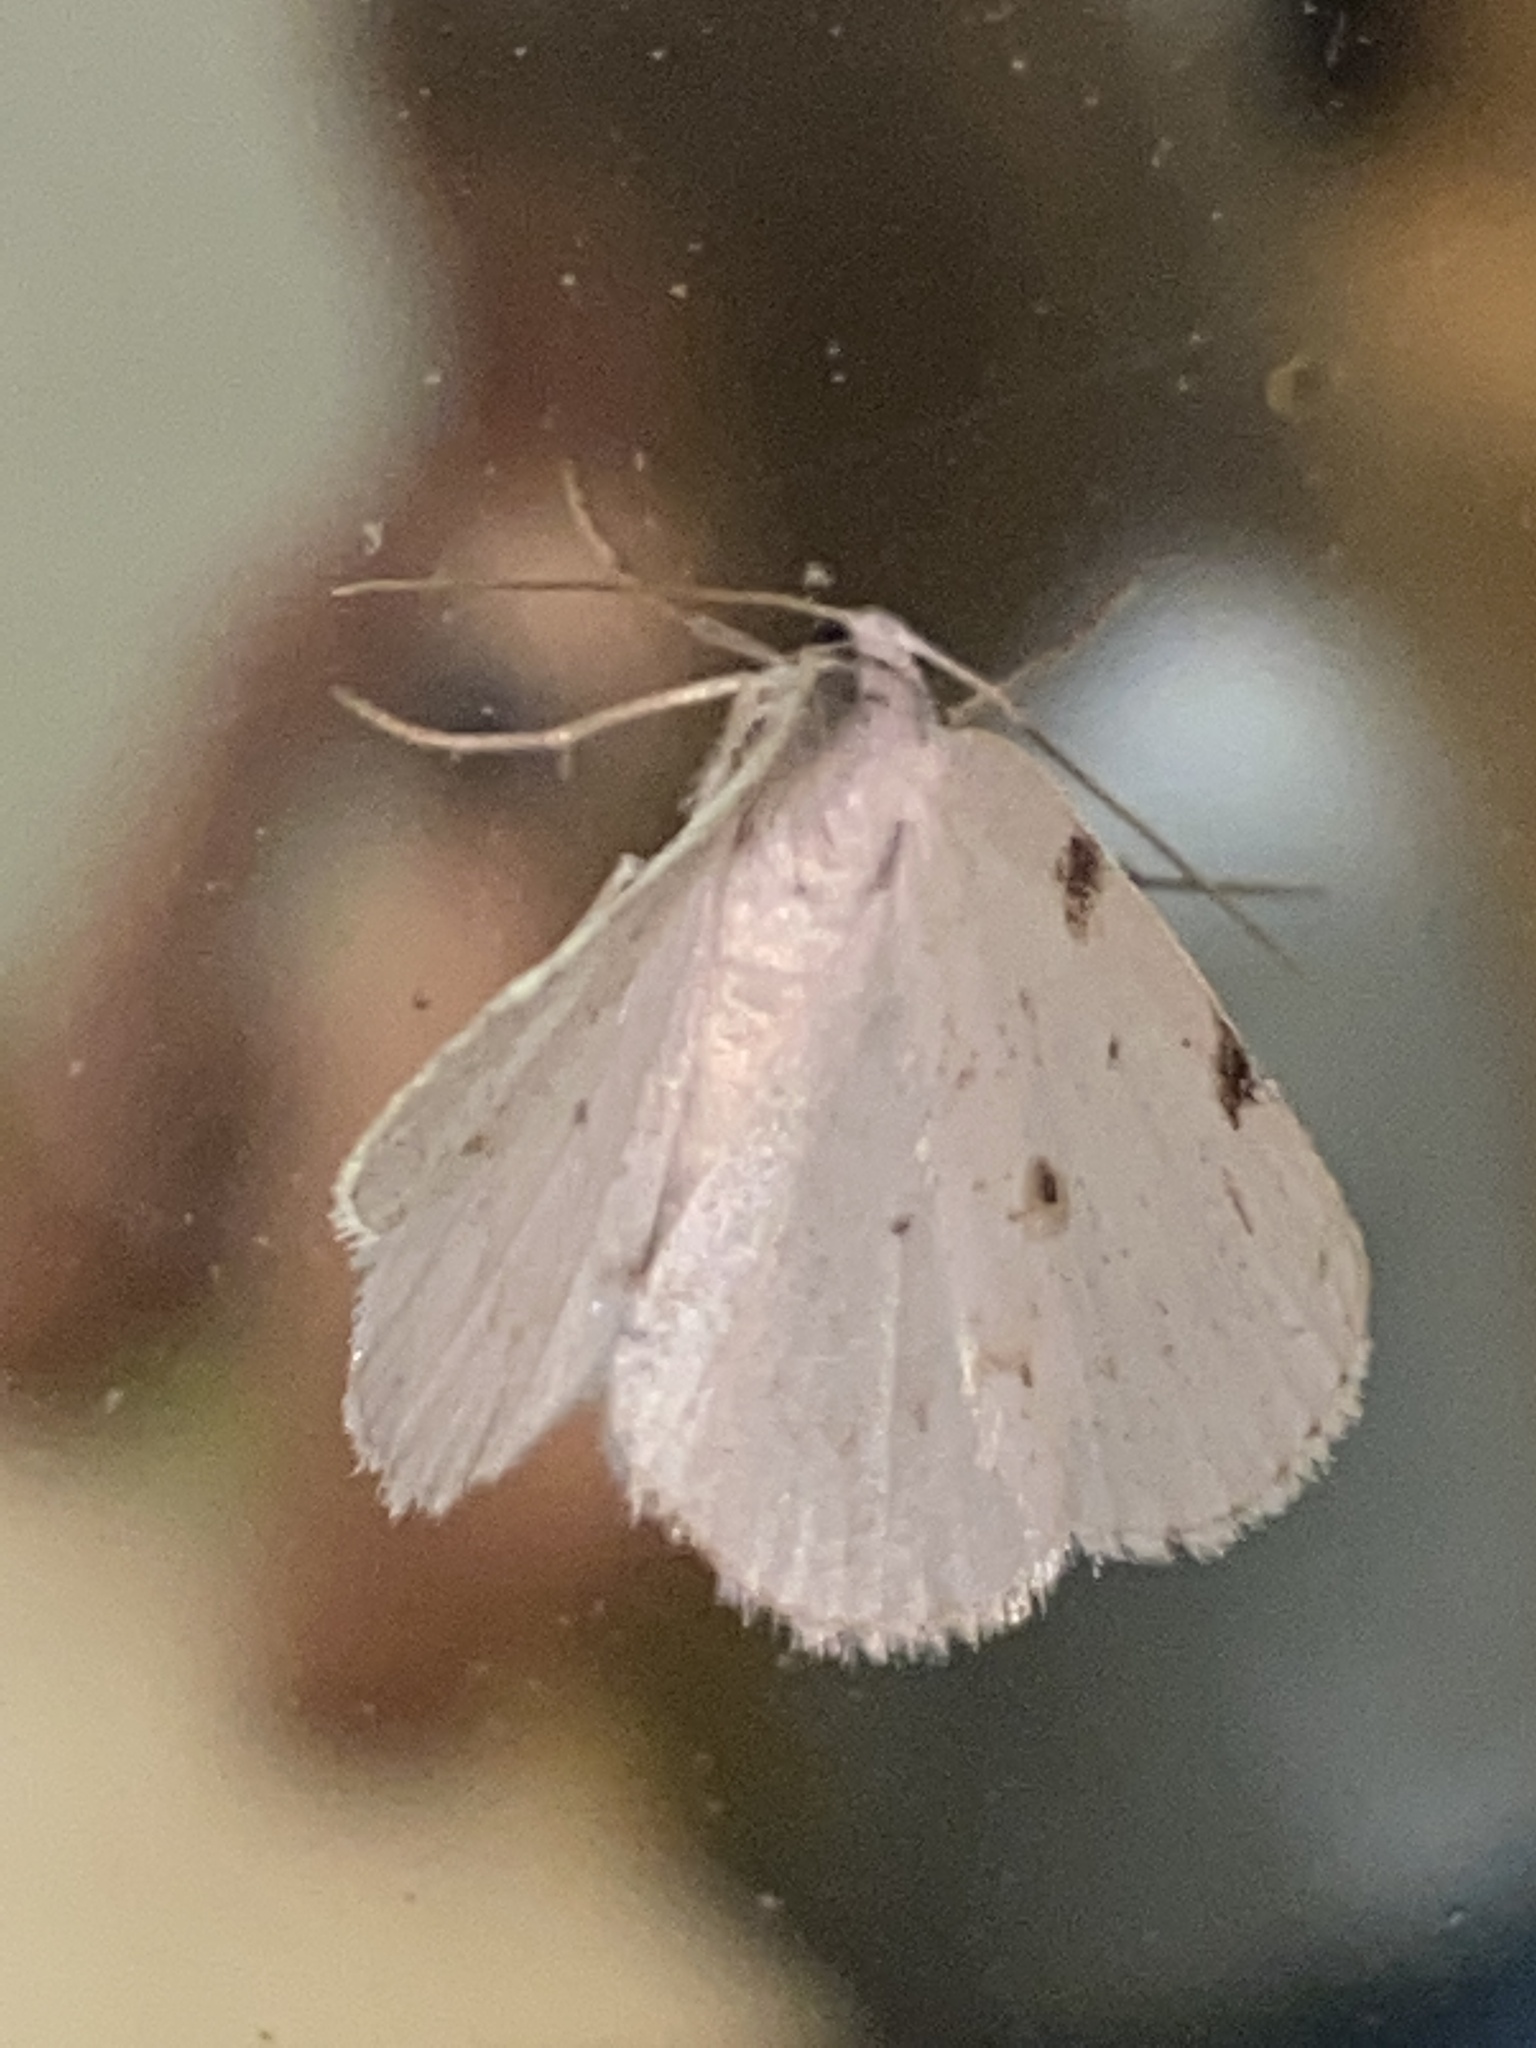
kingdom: Animalia
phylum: Arthropoda
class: Insecta
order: Lepidoptera
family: Geometridae
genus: Lomographa
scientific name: Lomographa bimaculata
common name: White-pinion spotted
